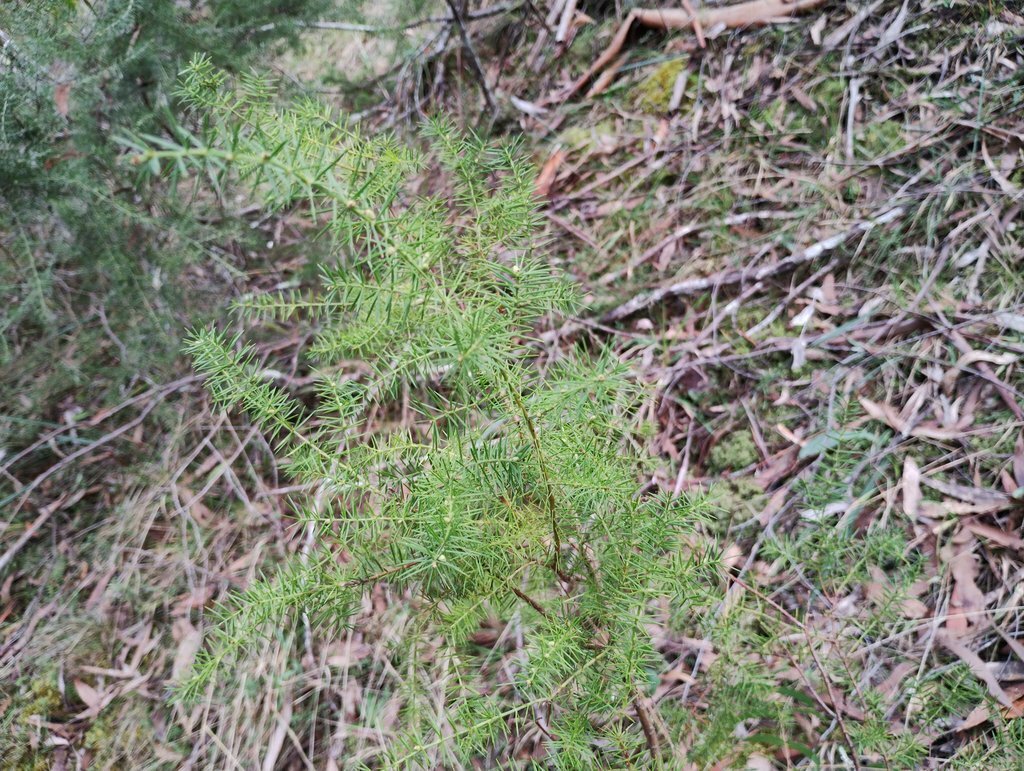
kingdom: Plantae
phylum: Tracheophyta
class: Magnoliopsida
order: Fabales
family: Fabaceae
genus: Acacia
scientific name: Acacia verticillata
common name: Prickly moses
